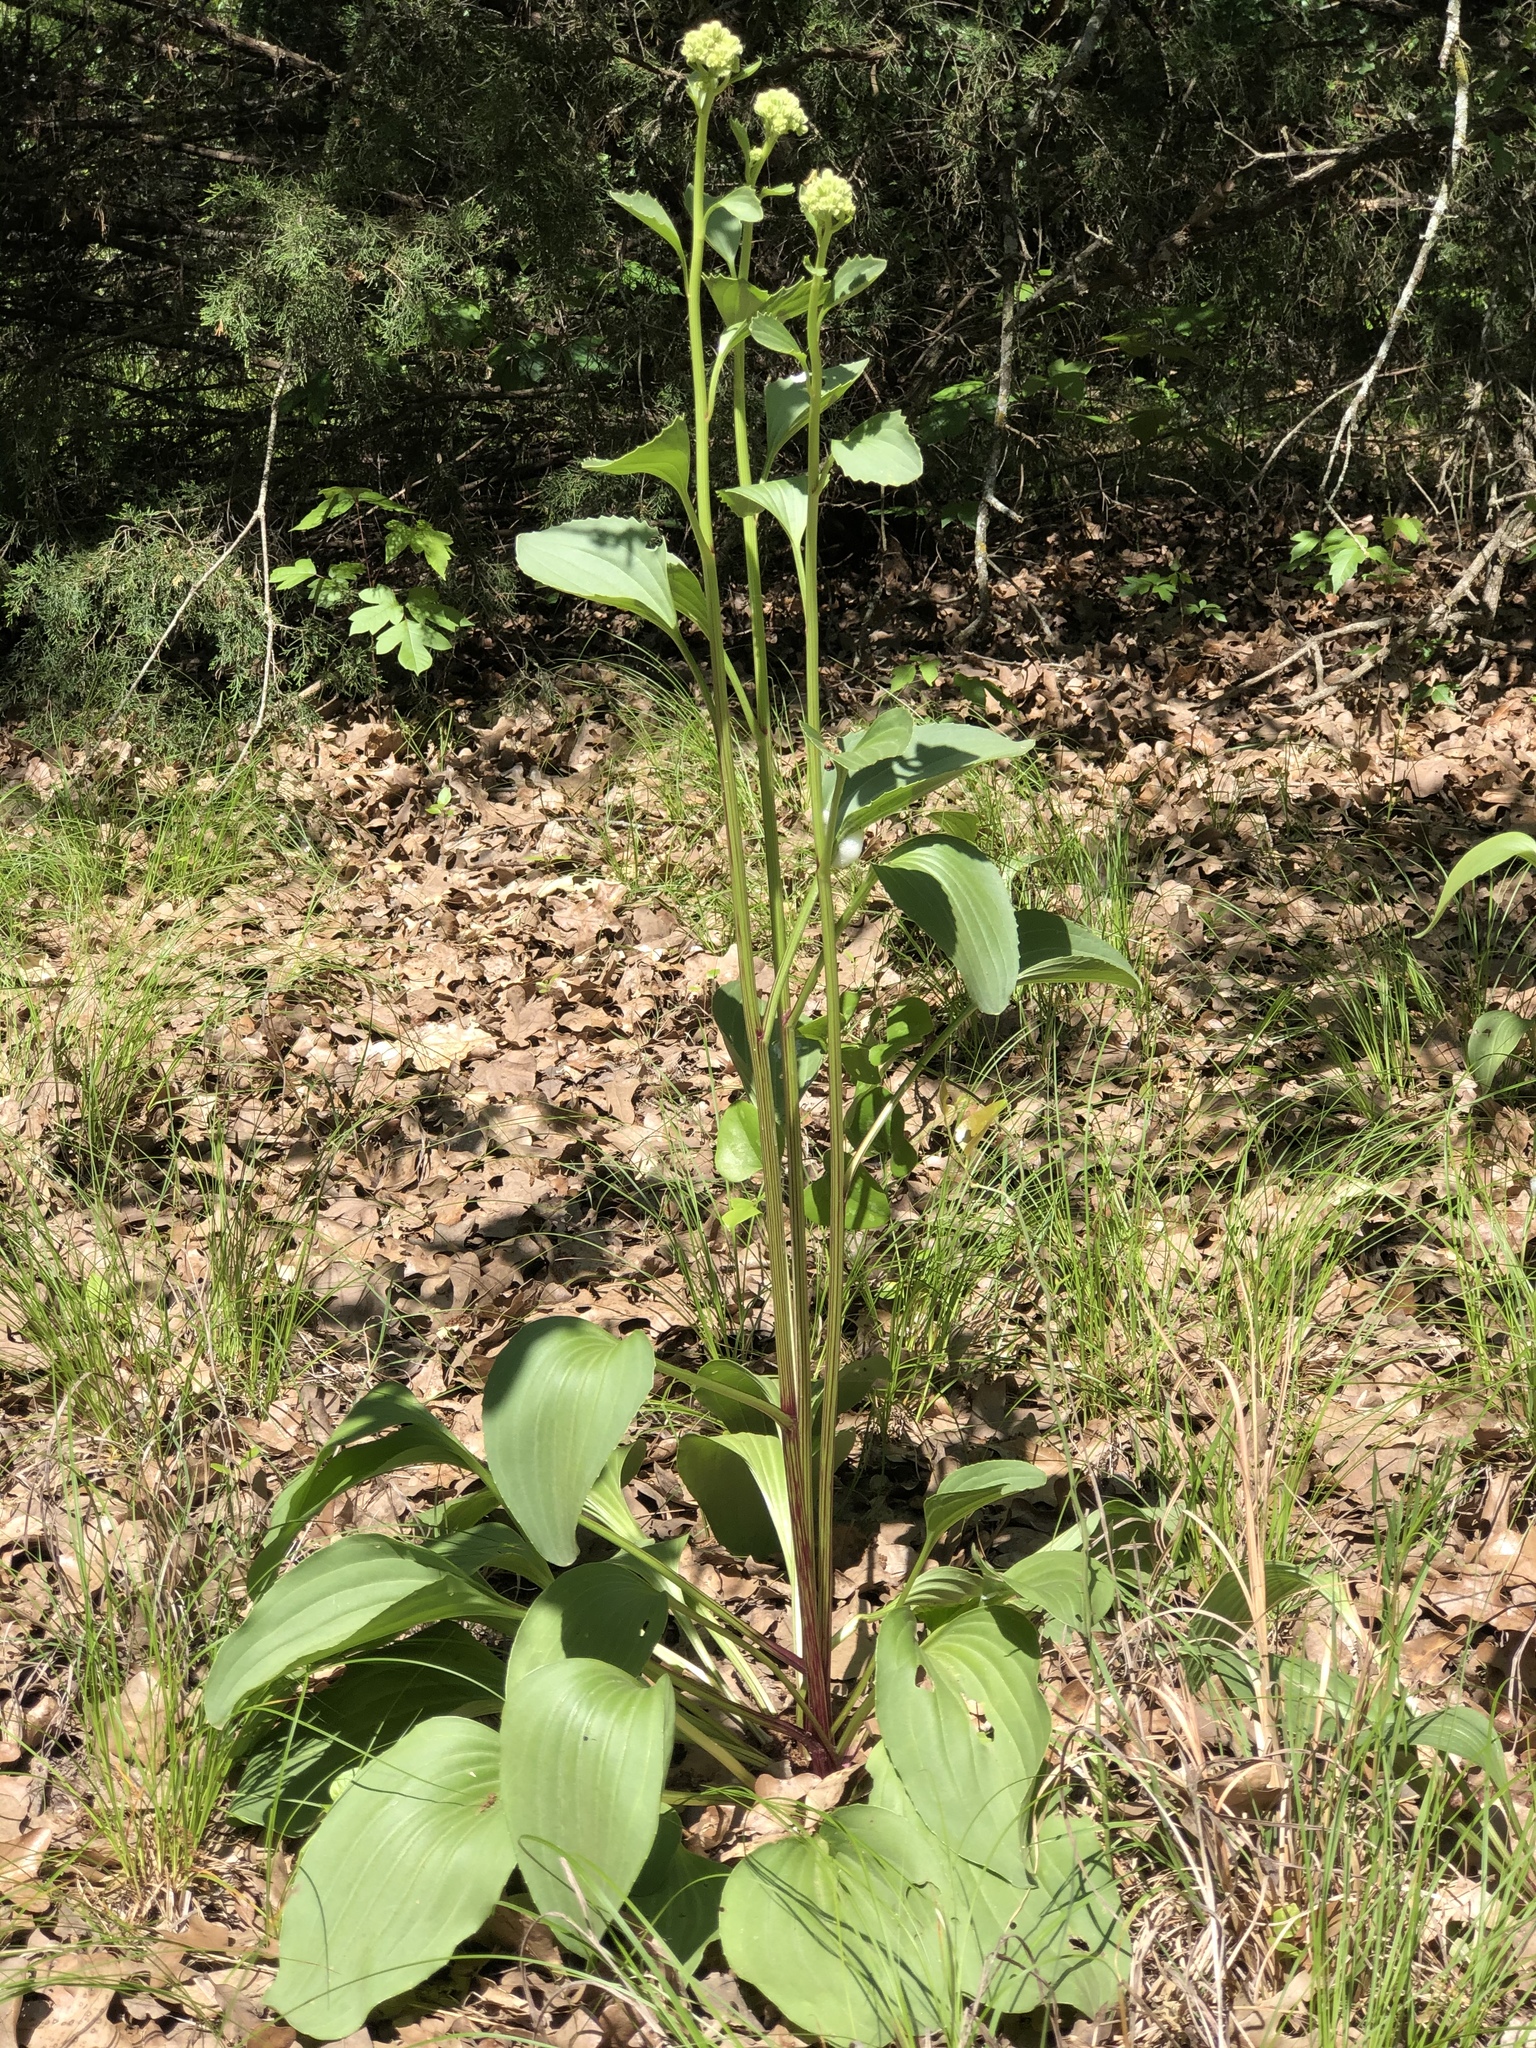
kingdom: Plantae
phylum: Tracheophyta
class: Magnoliopsida
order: Asterales
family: Asteraceae
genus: Arnoglossum
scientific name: Arnoglossum plantagineum
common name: Groove-stemmed indian-plantain
